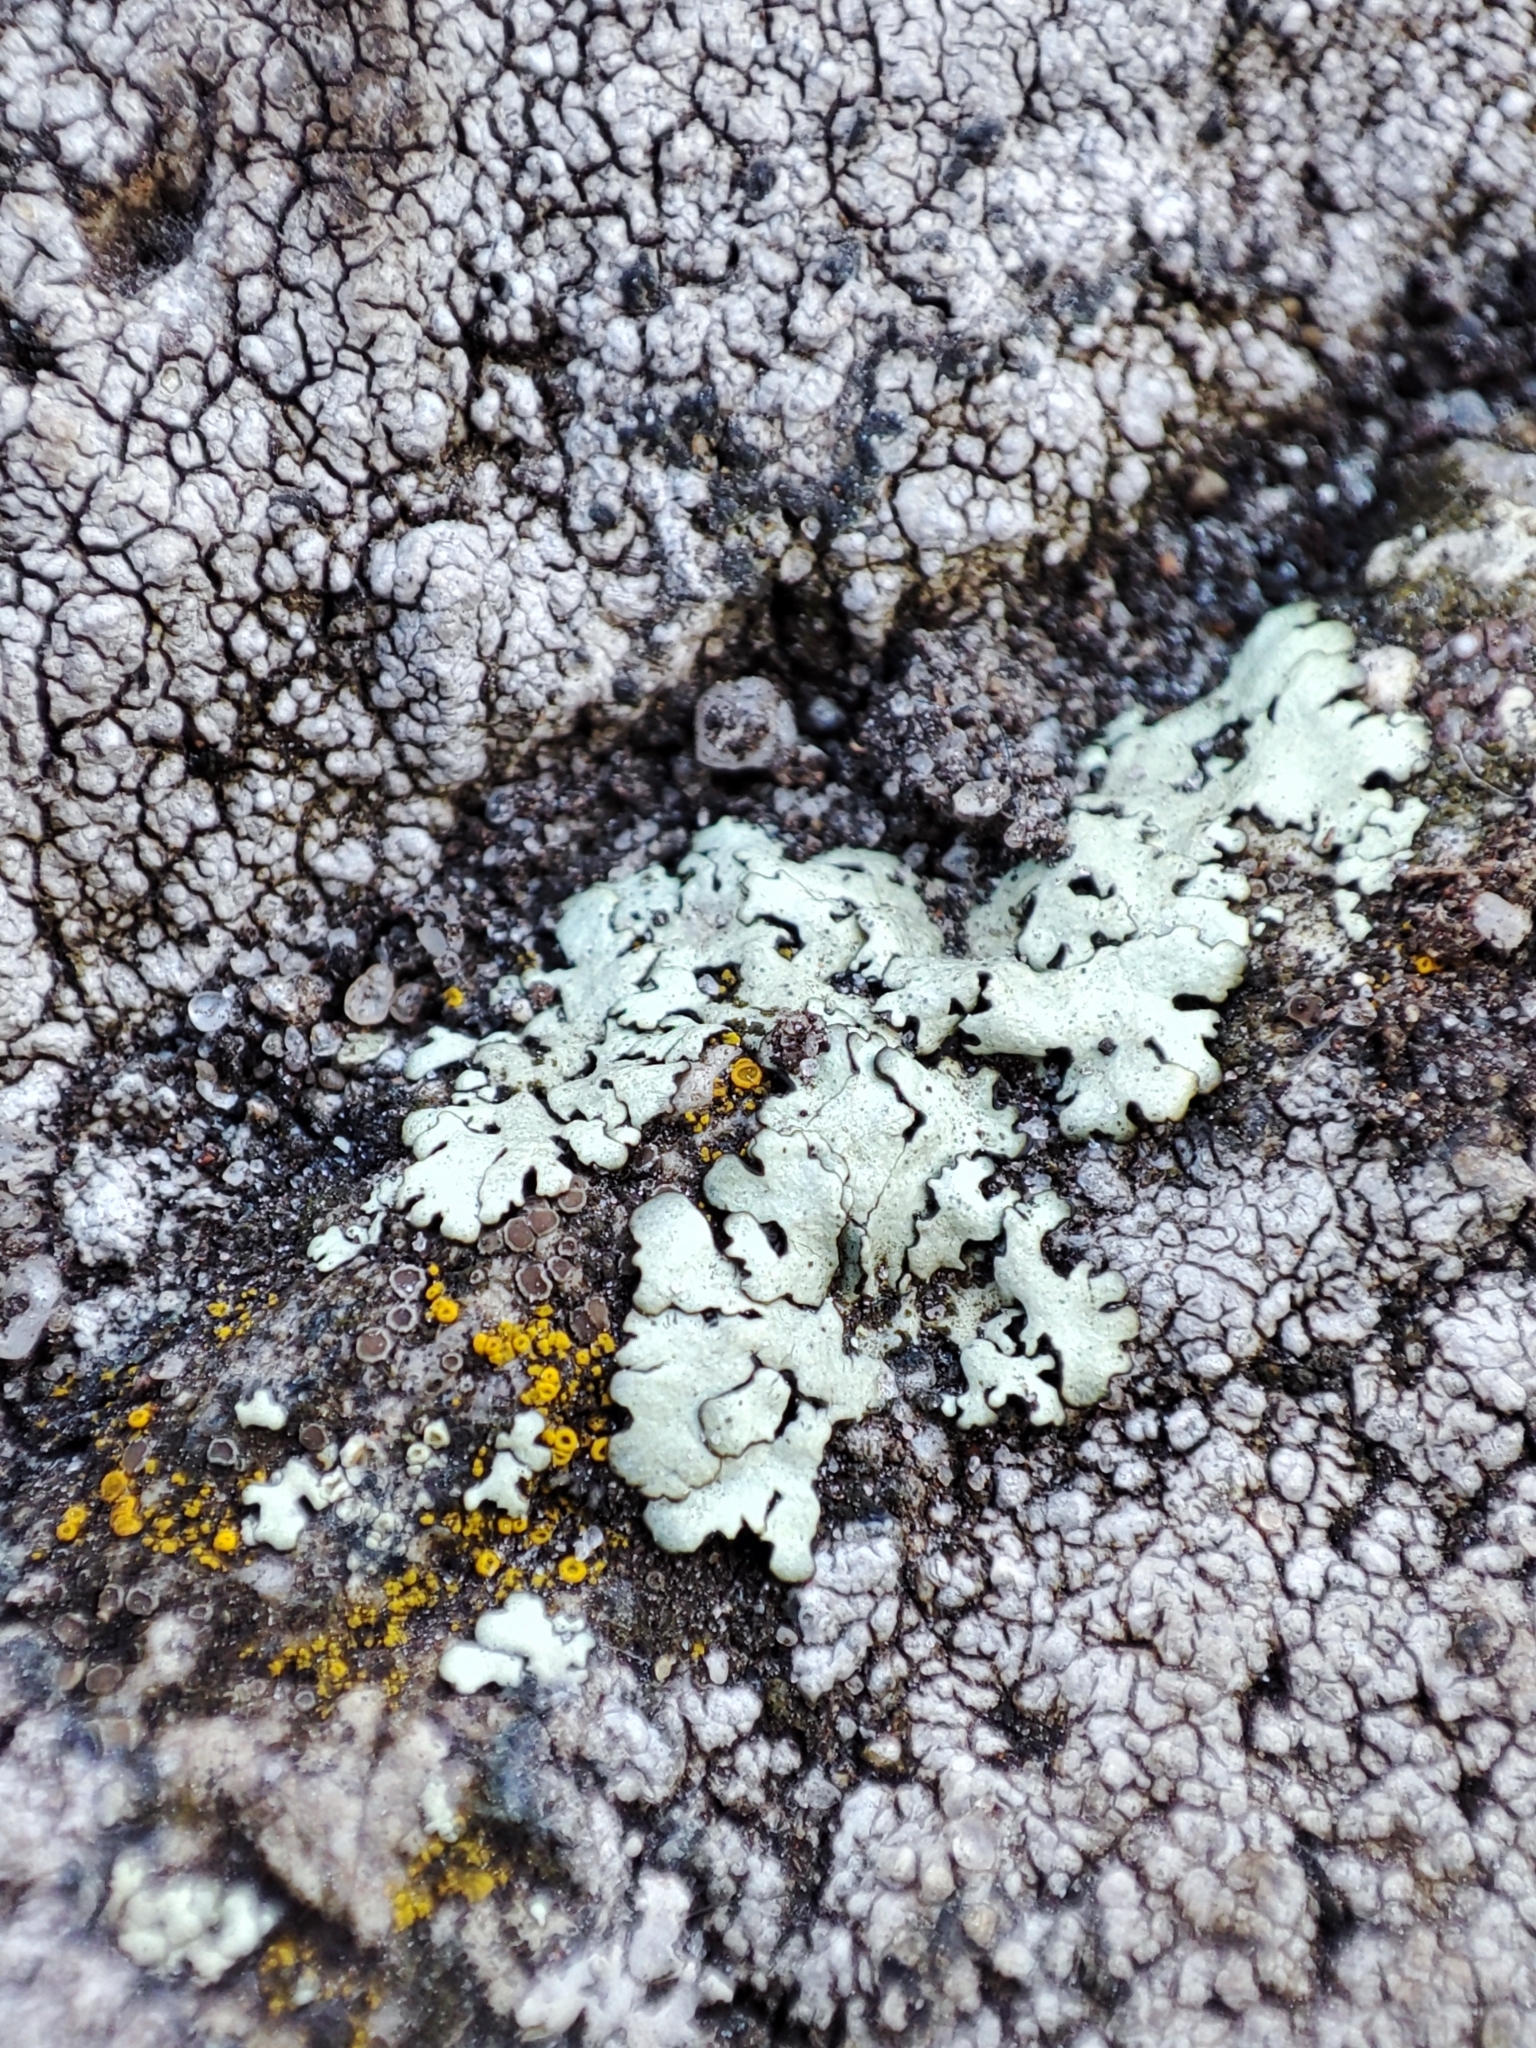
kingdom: Fungi
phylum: Ascomycota
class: Lecanoromycetes
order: Lecanorales
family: Parmeliaceae
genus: Xanthoparmelia
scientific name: Xanthoparmelia conspersa
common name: Peppered rock shield
